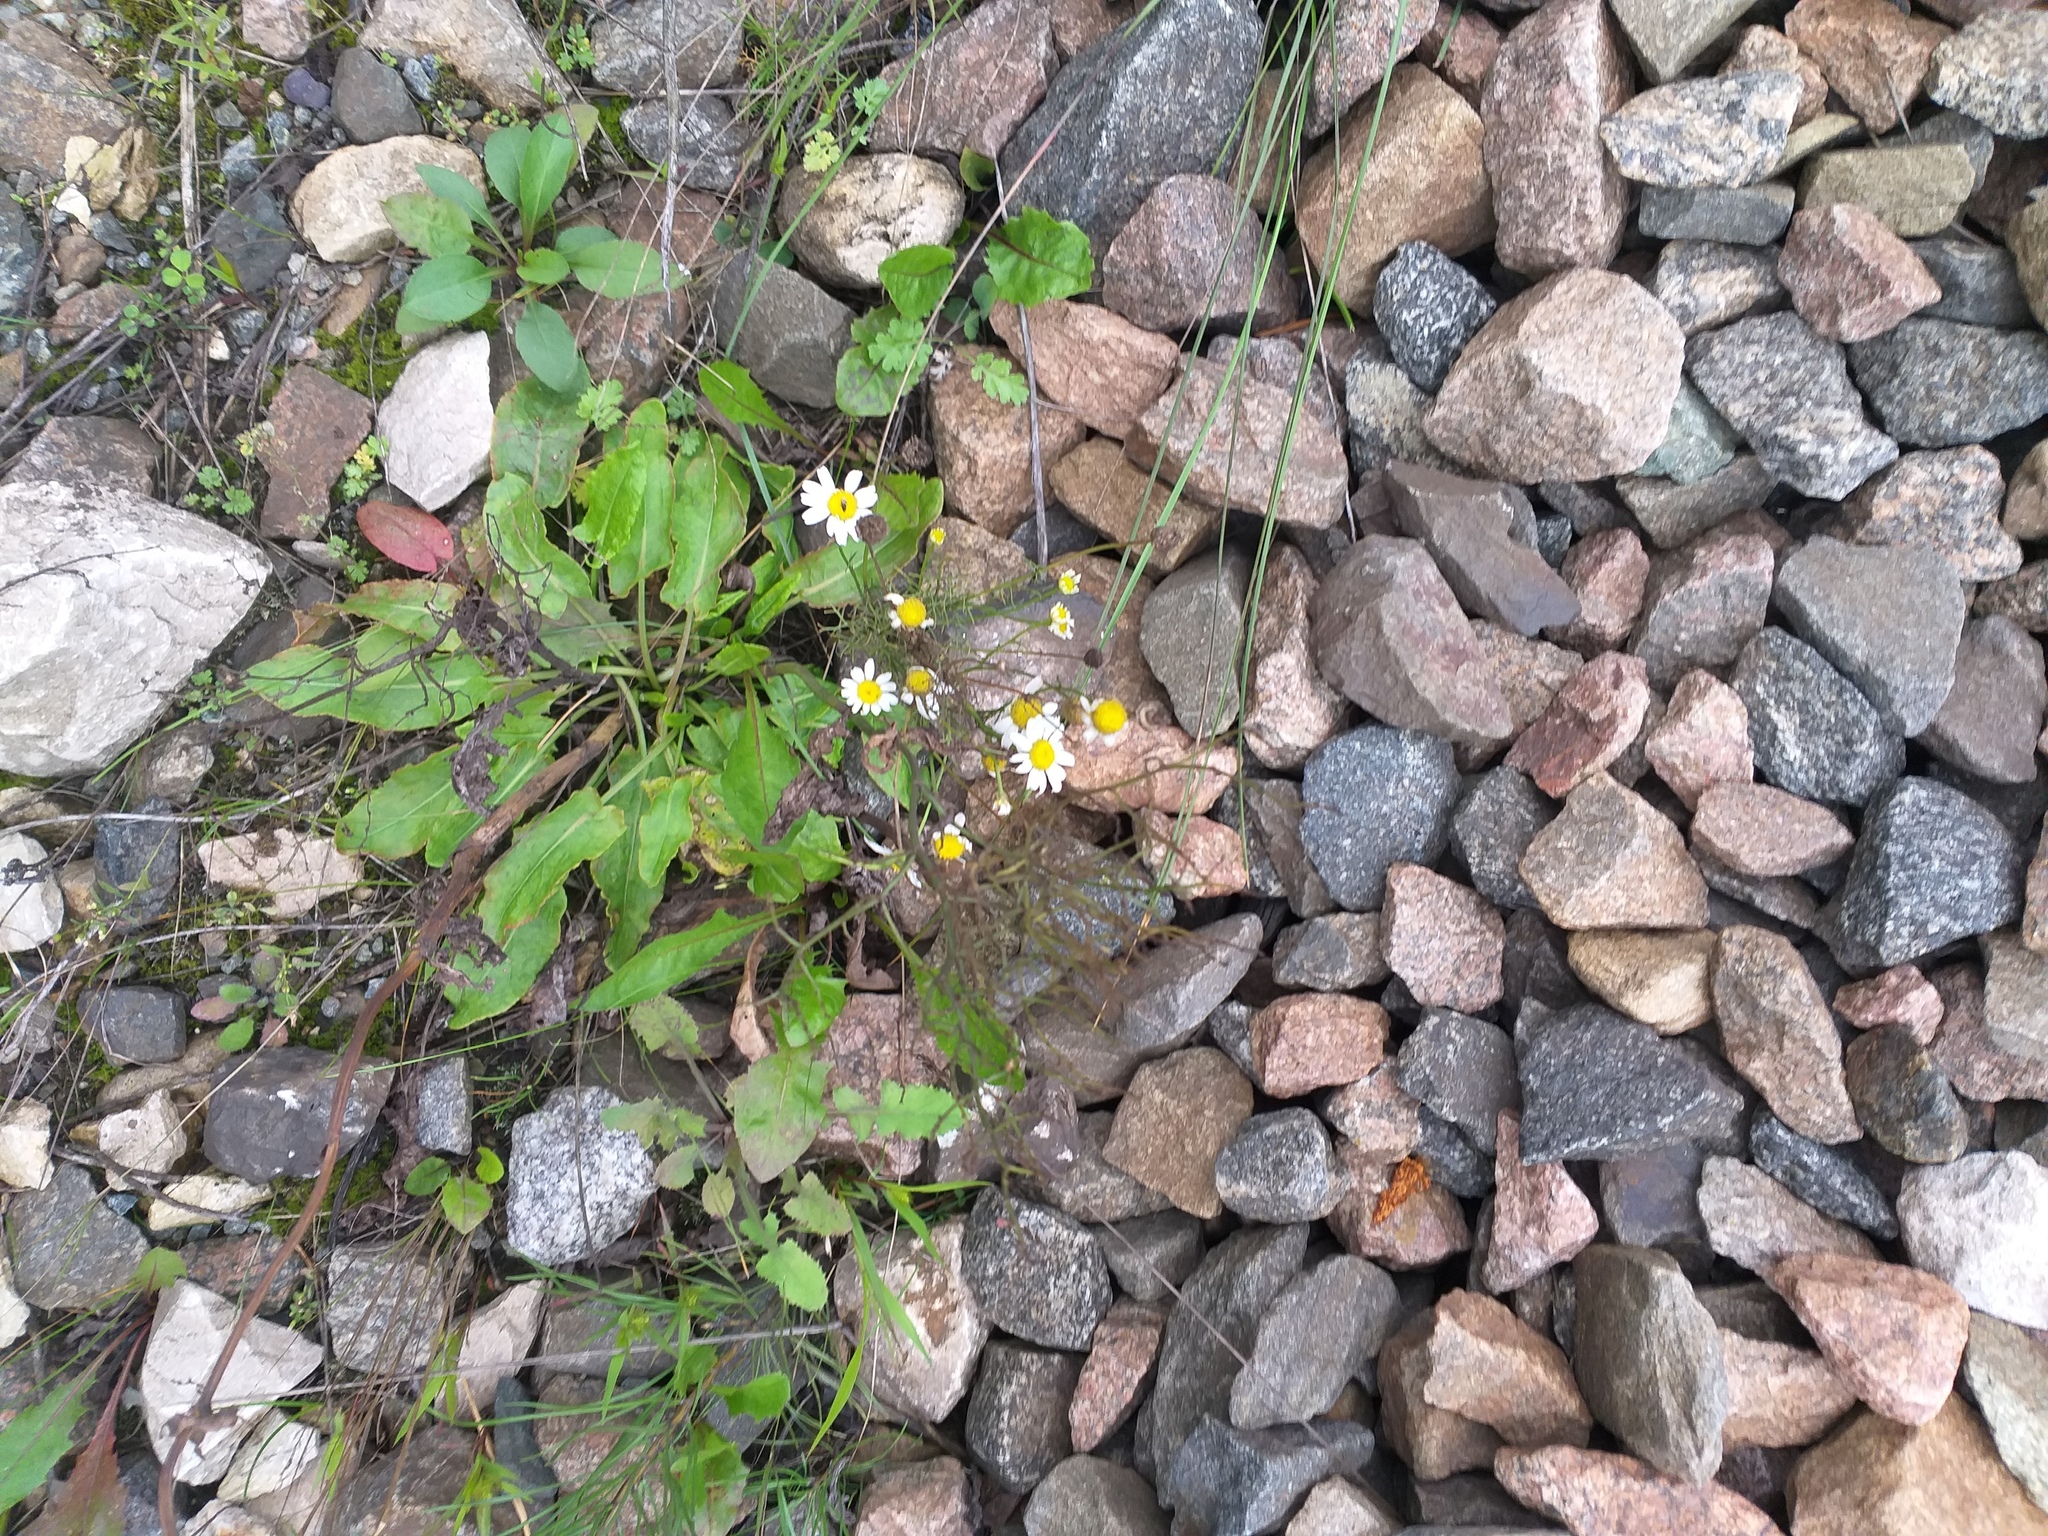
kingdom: Plantae
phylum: Tracheophyta
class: Magnoliopsida
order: Asterales
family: Asteraceae
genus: Tripleurospermum
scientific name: Tripleurospermum inodorum
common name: Scentless mayweed
